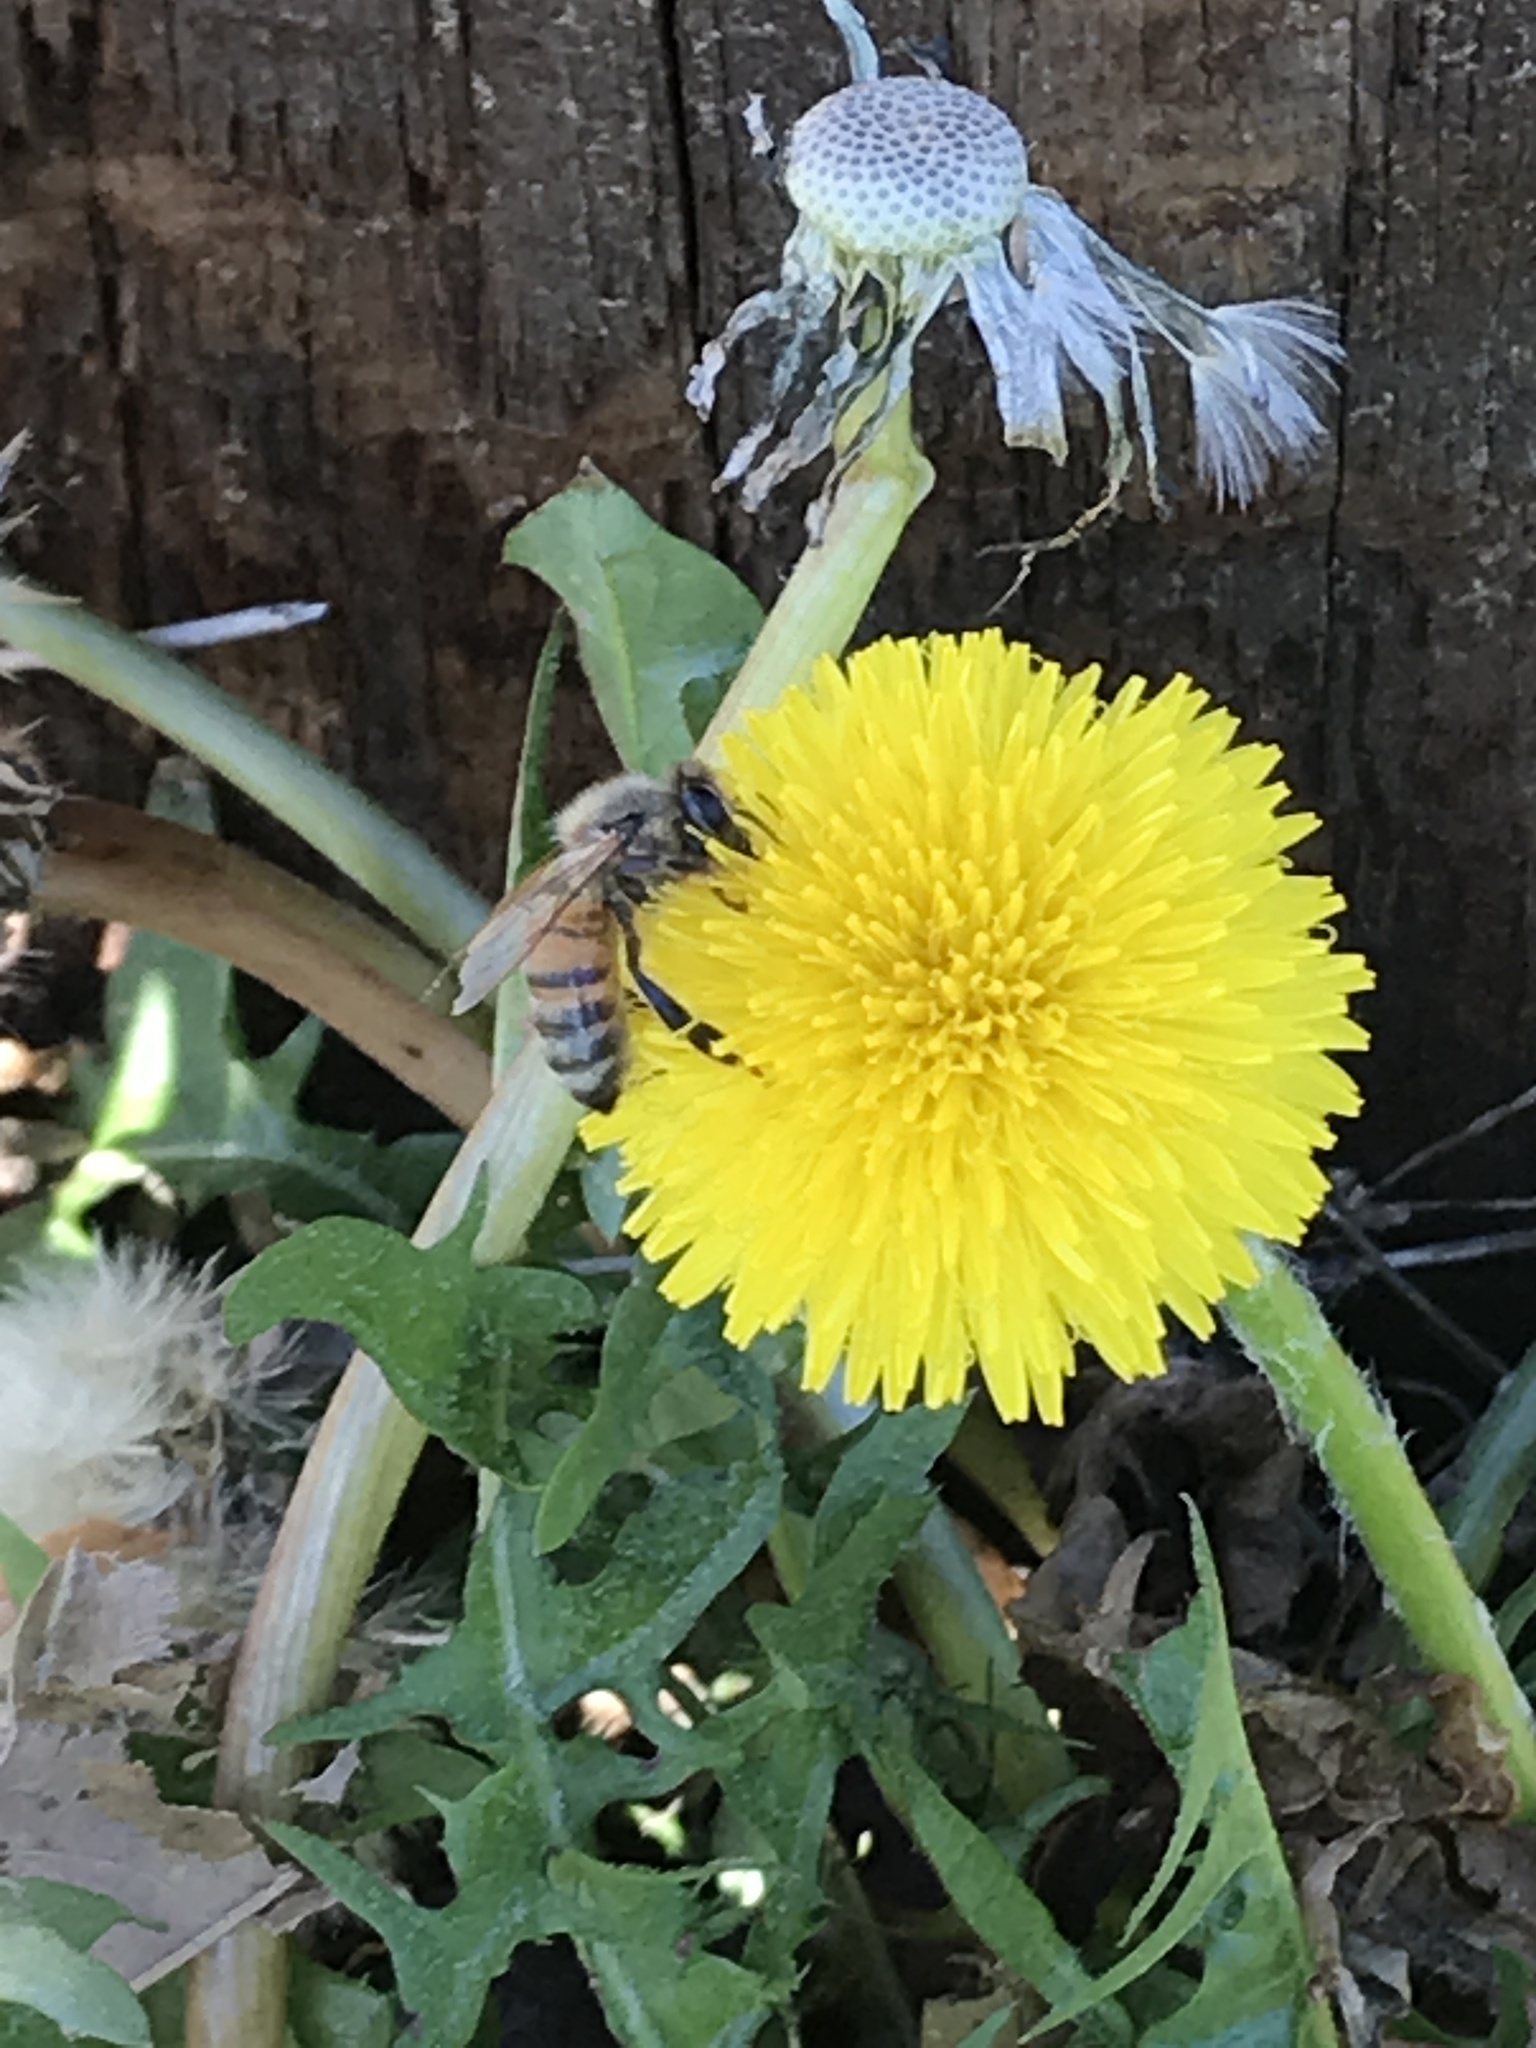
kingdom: Animalia
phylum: Arthropoda
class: Insecta
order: Hymenoptera
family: Apidae
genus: Apis
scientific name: Apis mellifera
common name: Honey bee
